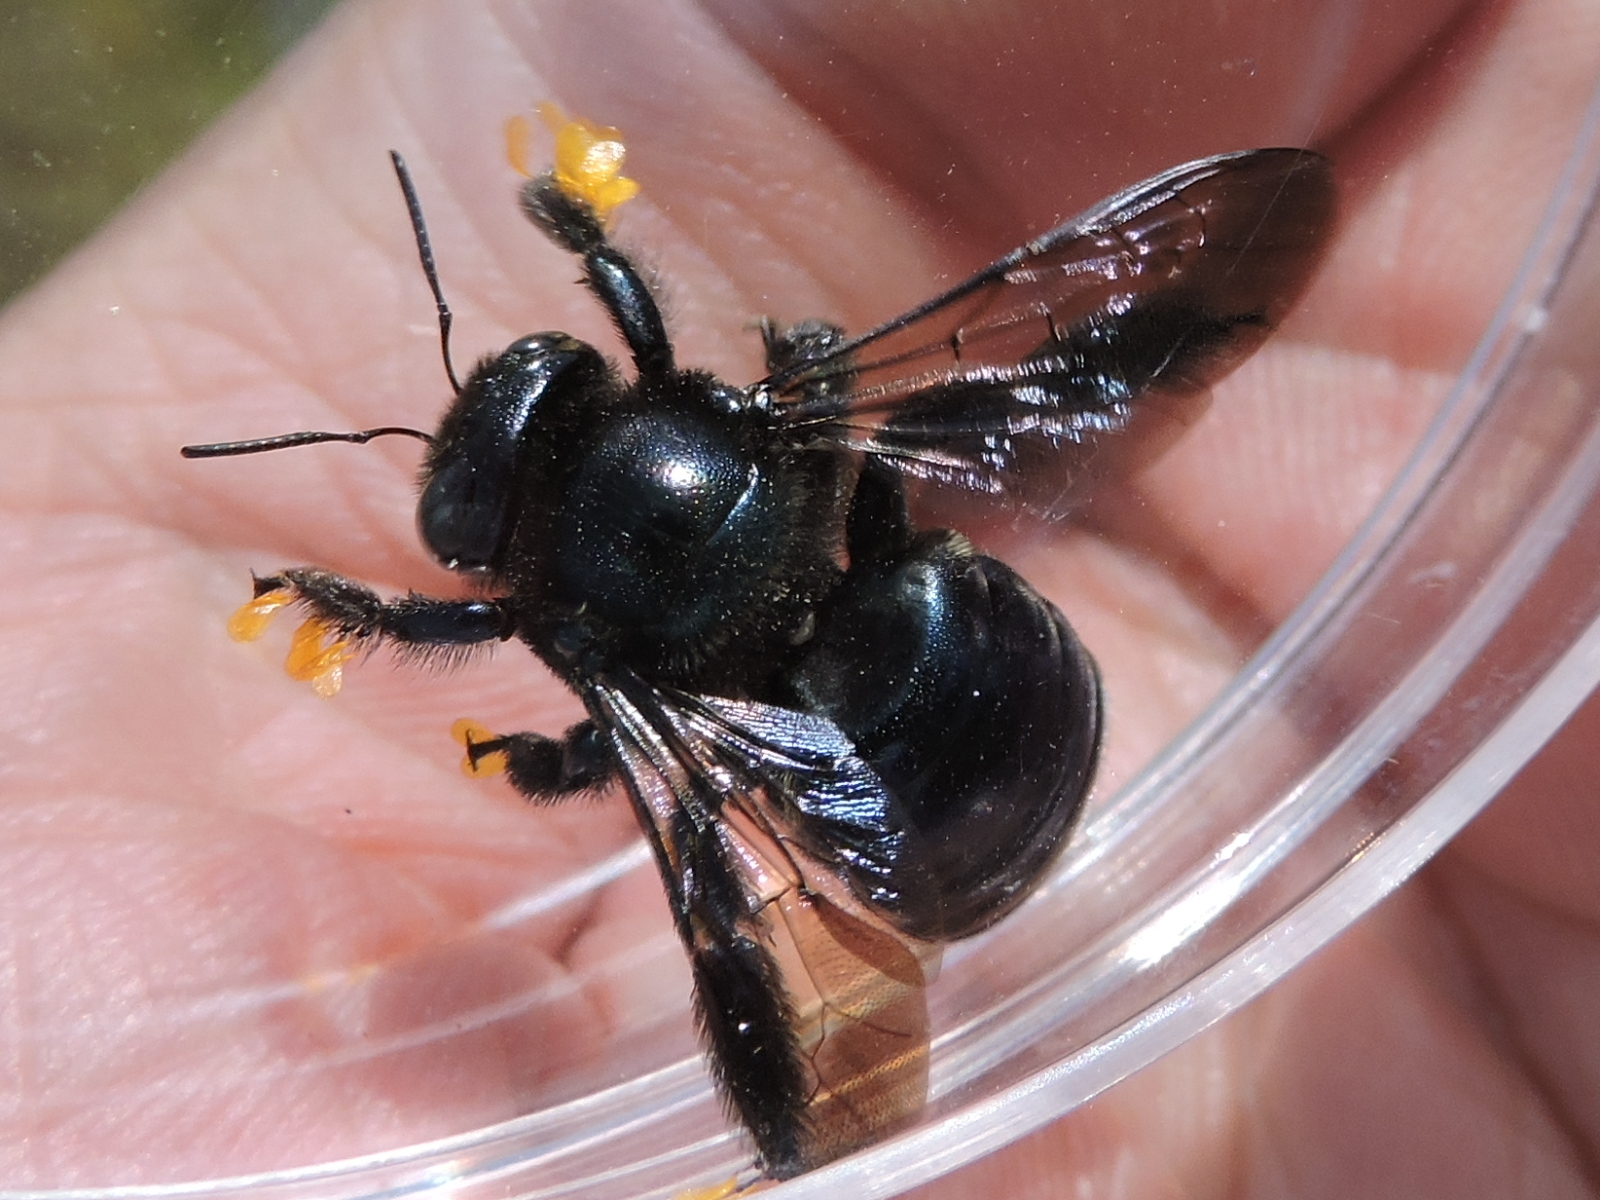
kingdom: Animalia
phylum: Arthropoda
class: Insecta
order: Hymenoptera
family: Apidae
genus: Xylocopa
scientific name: Xylocopa micans
